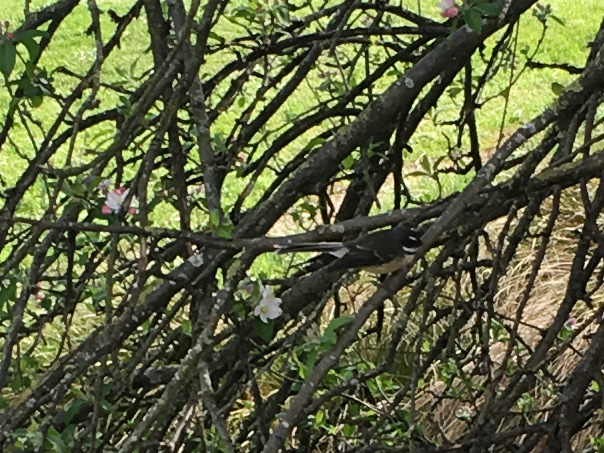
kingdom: Animalia
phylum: Chordata
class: Aves
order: Passeriformes
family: Rhipiduridae
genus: Rhipidura
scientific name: Rhipidura fuliginosa
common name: New zealand fantail
